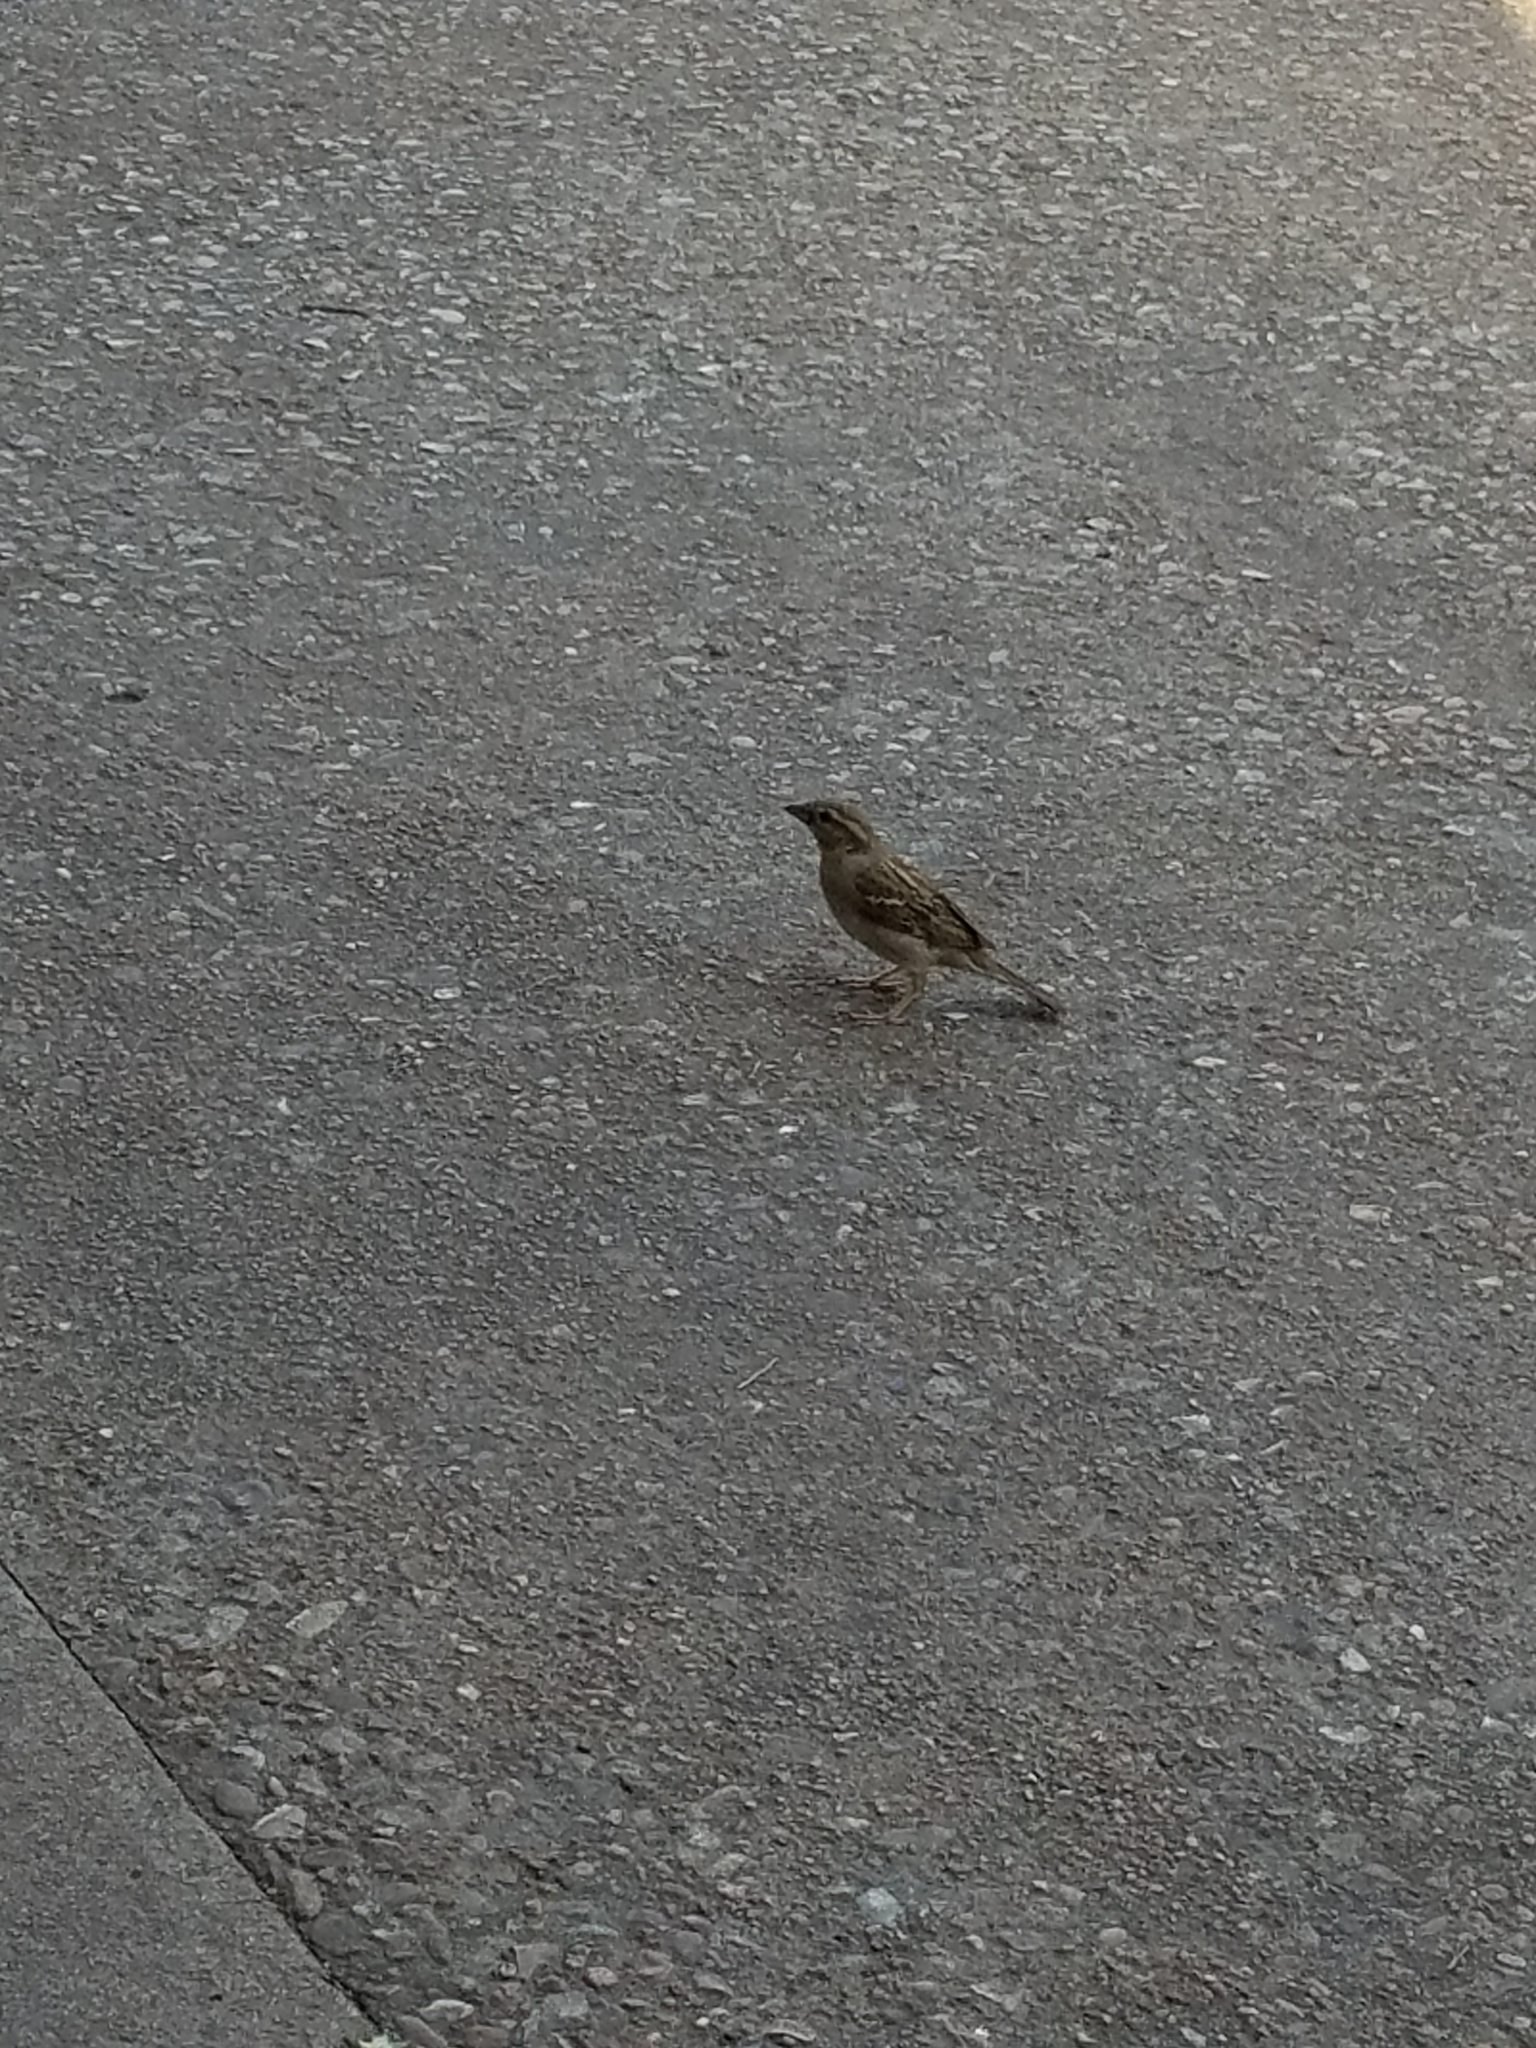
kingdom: Animalia
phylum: Chordata
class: Aves
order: Passeriformes
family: Passeridae
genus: Passer
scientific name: Passer domesticus
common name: House sparrow
